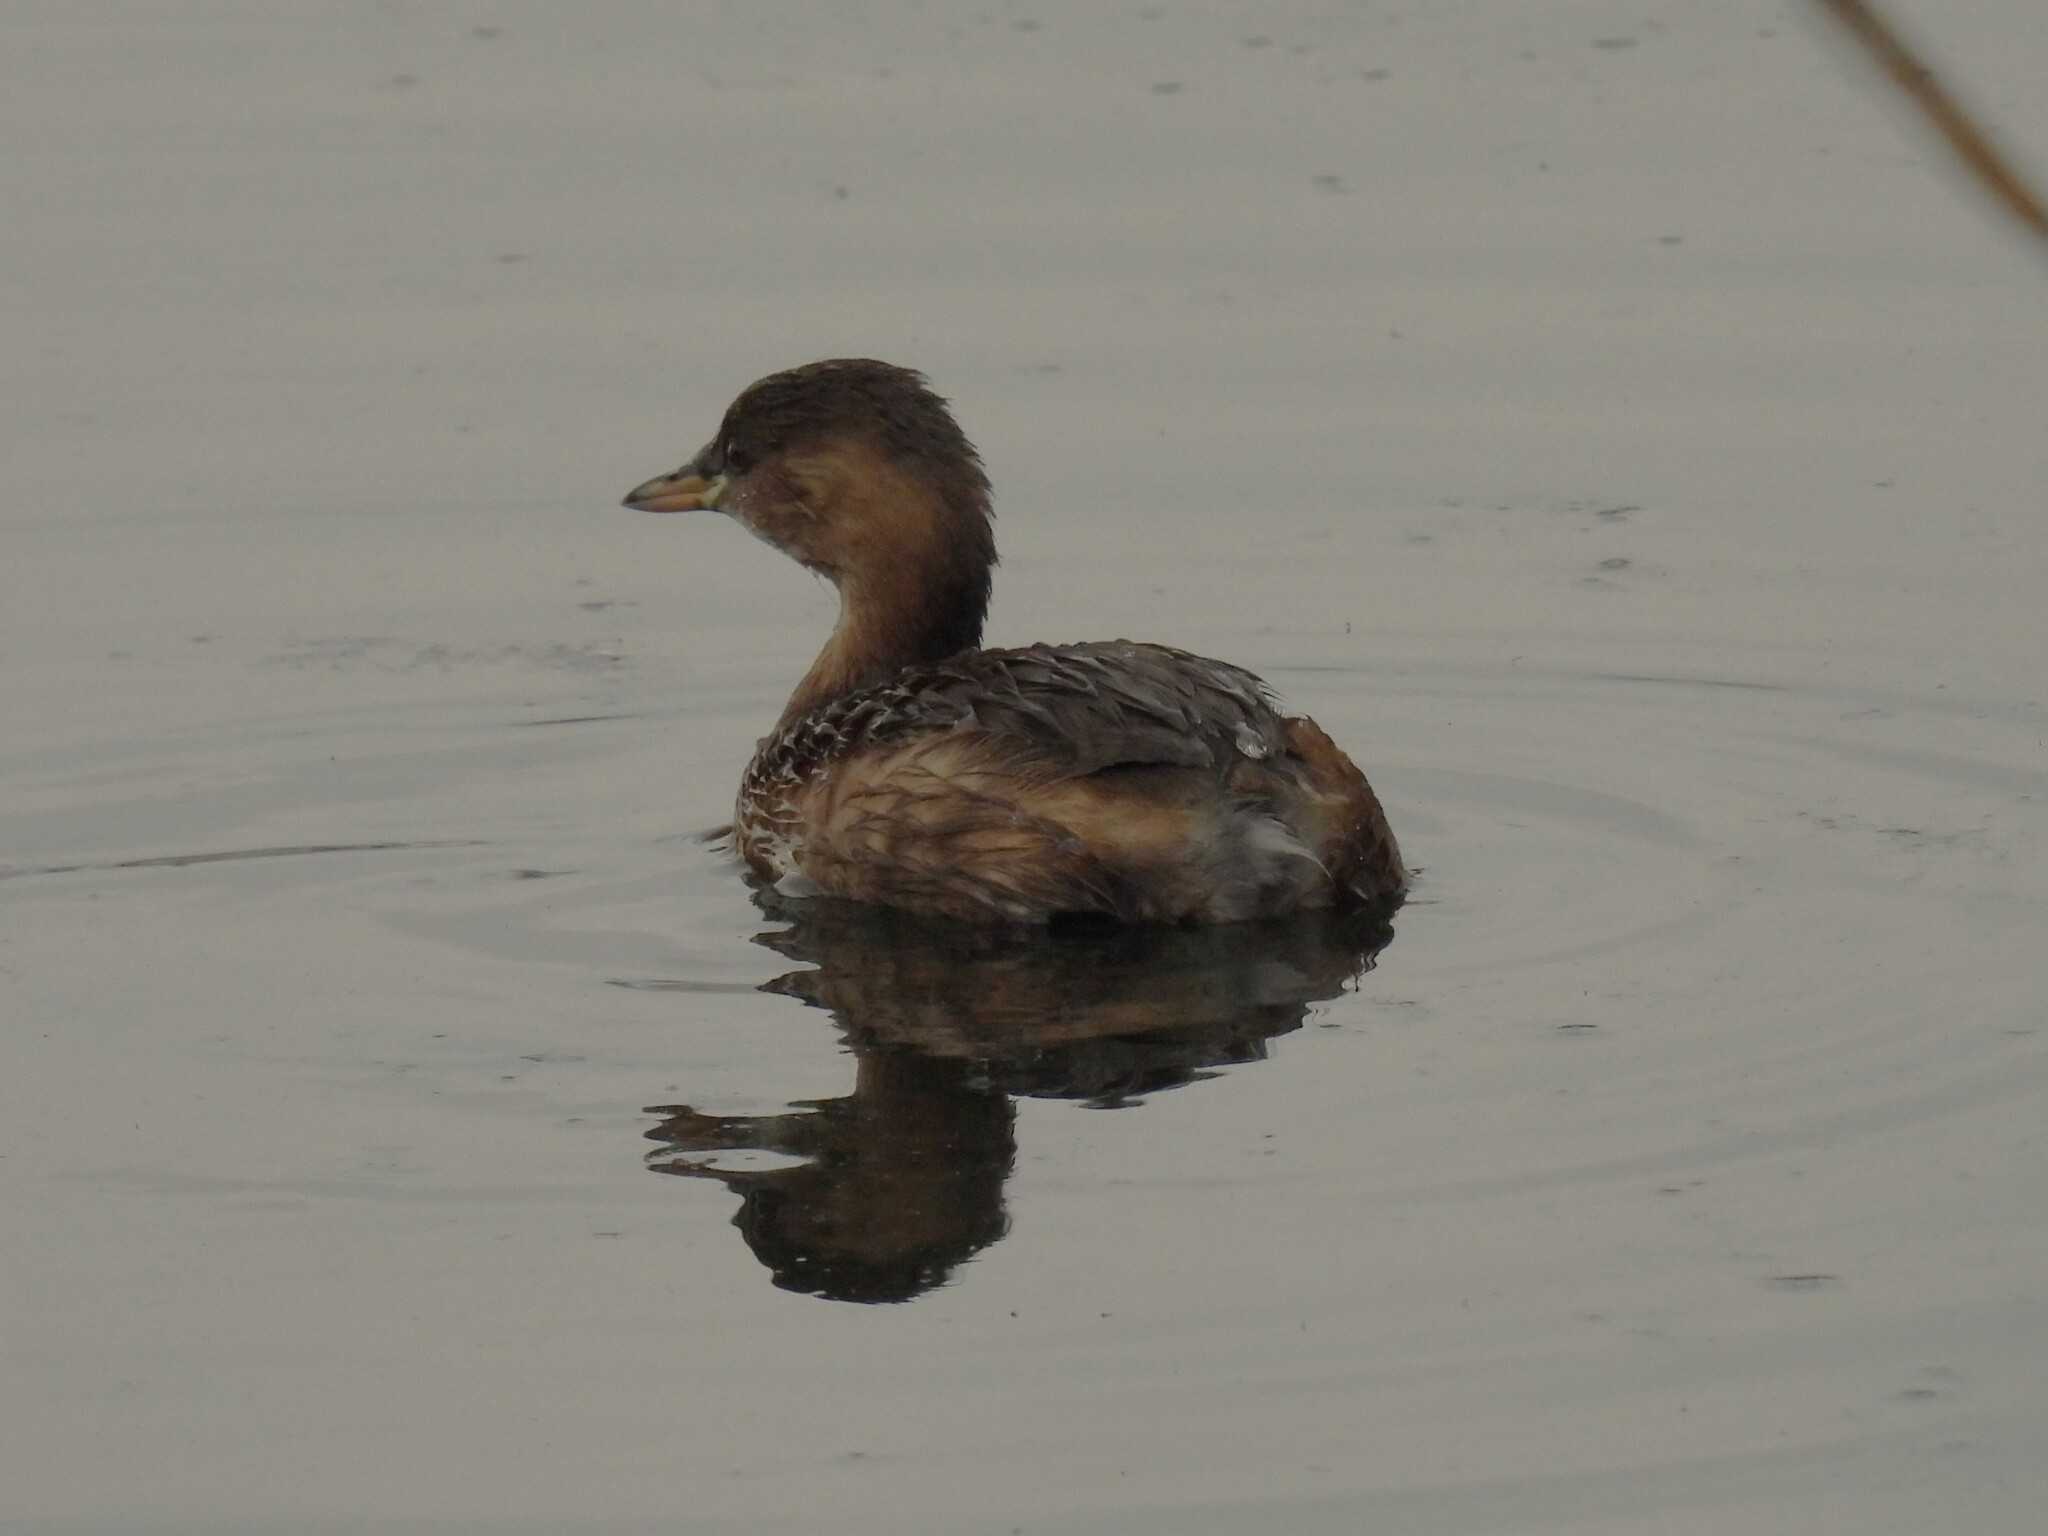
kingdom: Animalia
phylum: Chordata
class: Aves
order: Podicipediformes
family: Podicipedidae
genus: Tachybaptus
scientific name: Tachybaptus ruficollis
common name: Little grebe
